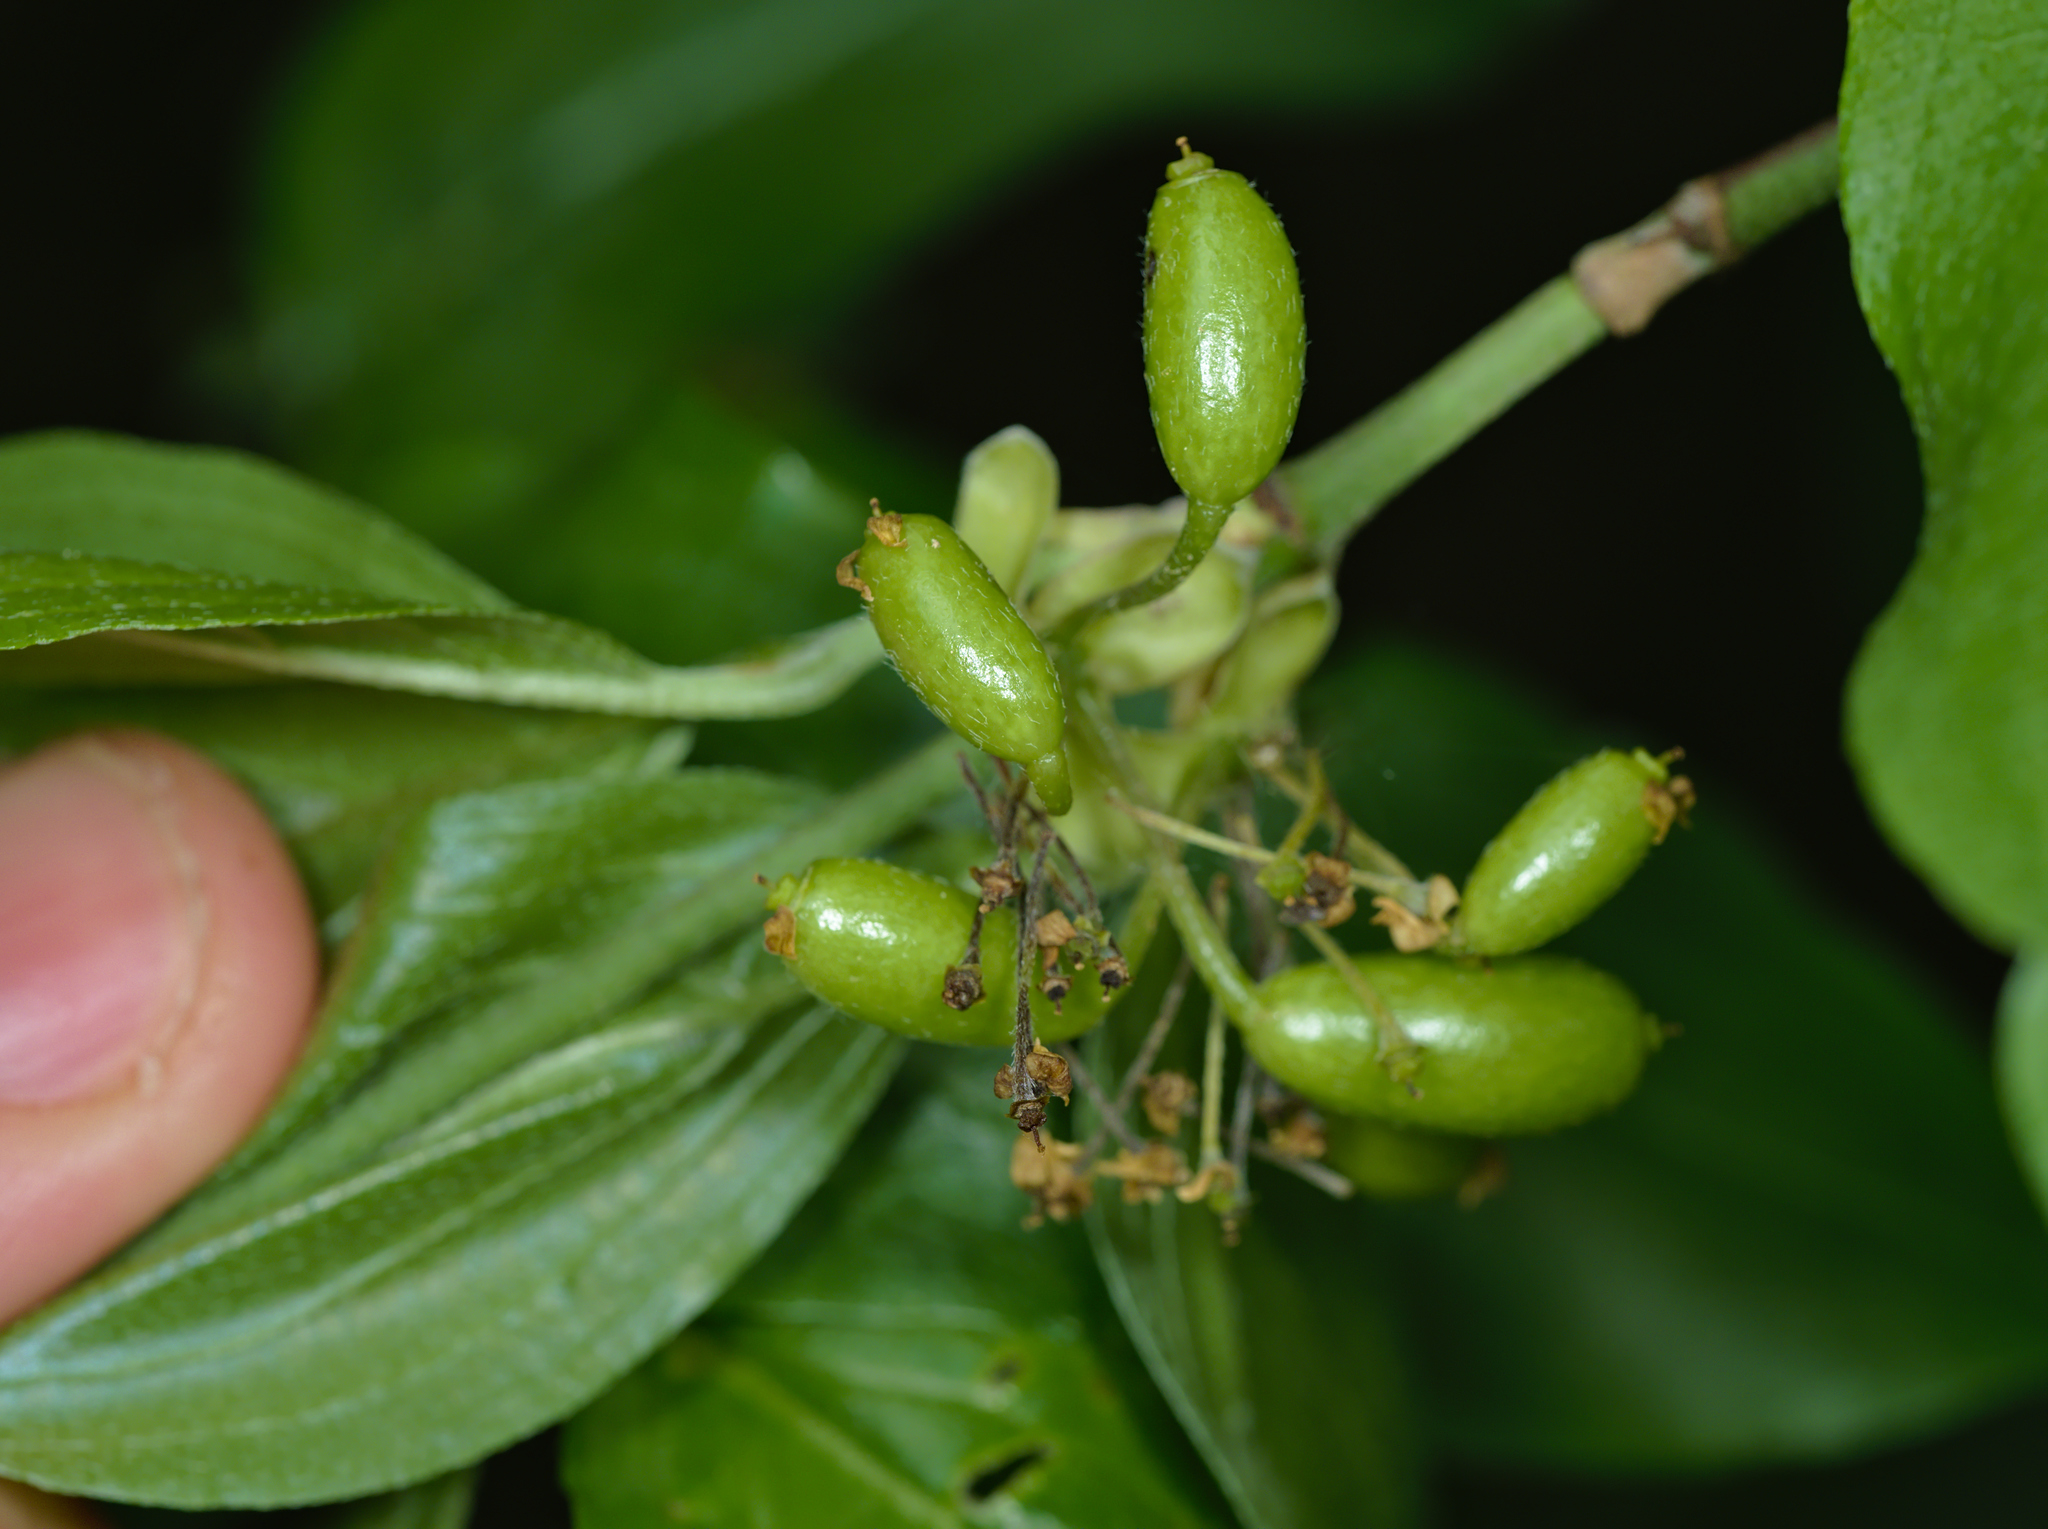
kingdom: Plantae
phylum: Tracheophyta
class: Magnoliopsida
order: Cornales
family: Cornaceae
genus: Cornus
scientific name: Cornus mas
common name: Cornelian-cherry
